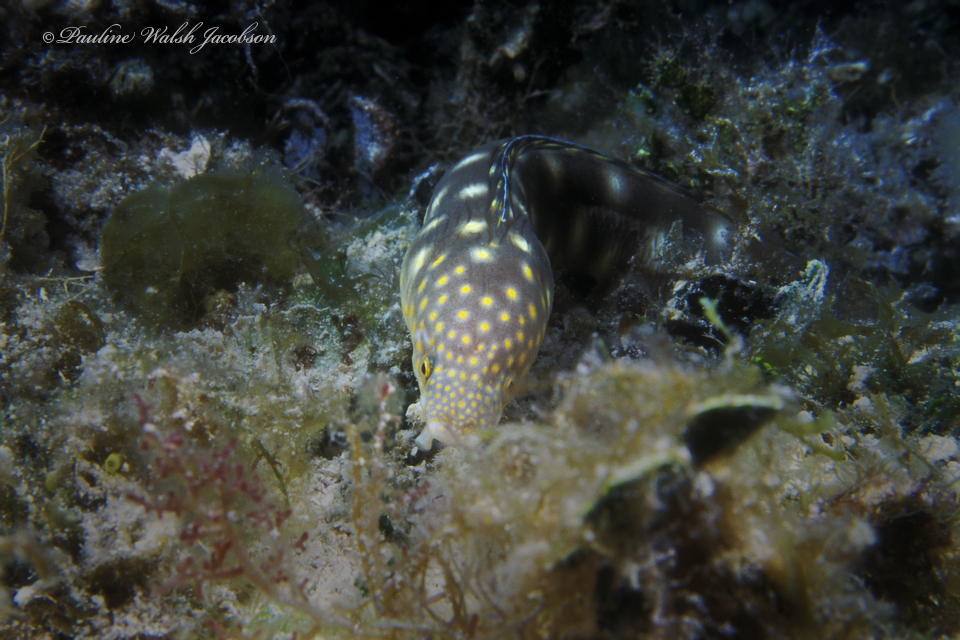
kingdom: Animalia
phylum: Chordata
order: Anguilliformes
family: Ophichthidae
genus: Myrichthys
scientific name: Myrichthys breviceps
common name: Sharptail eel
